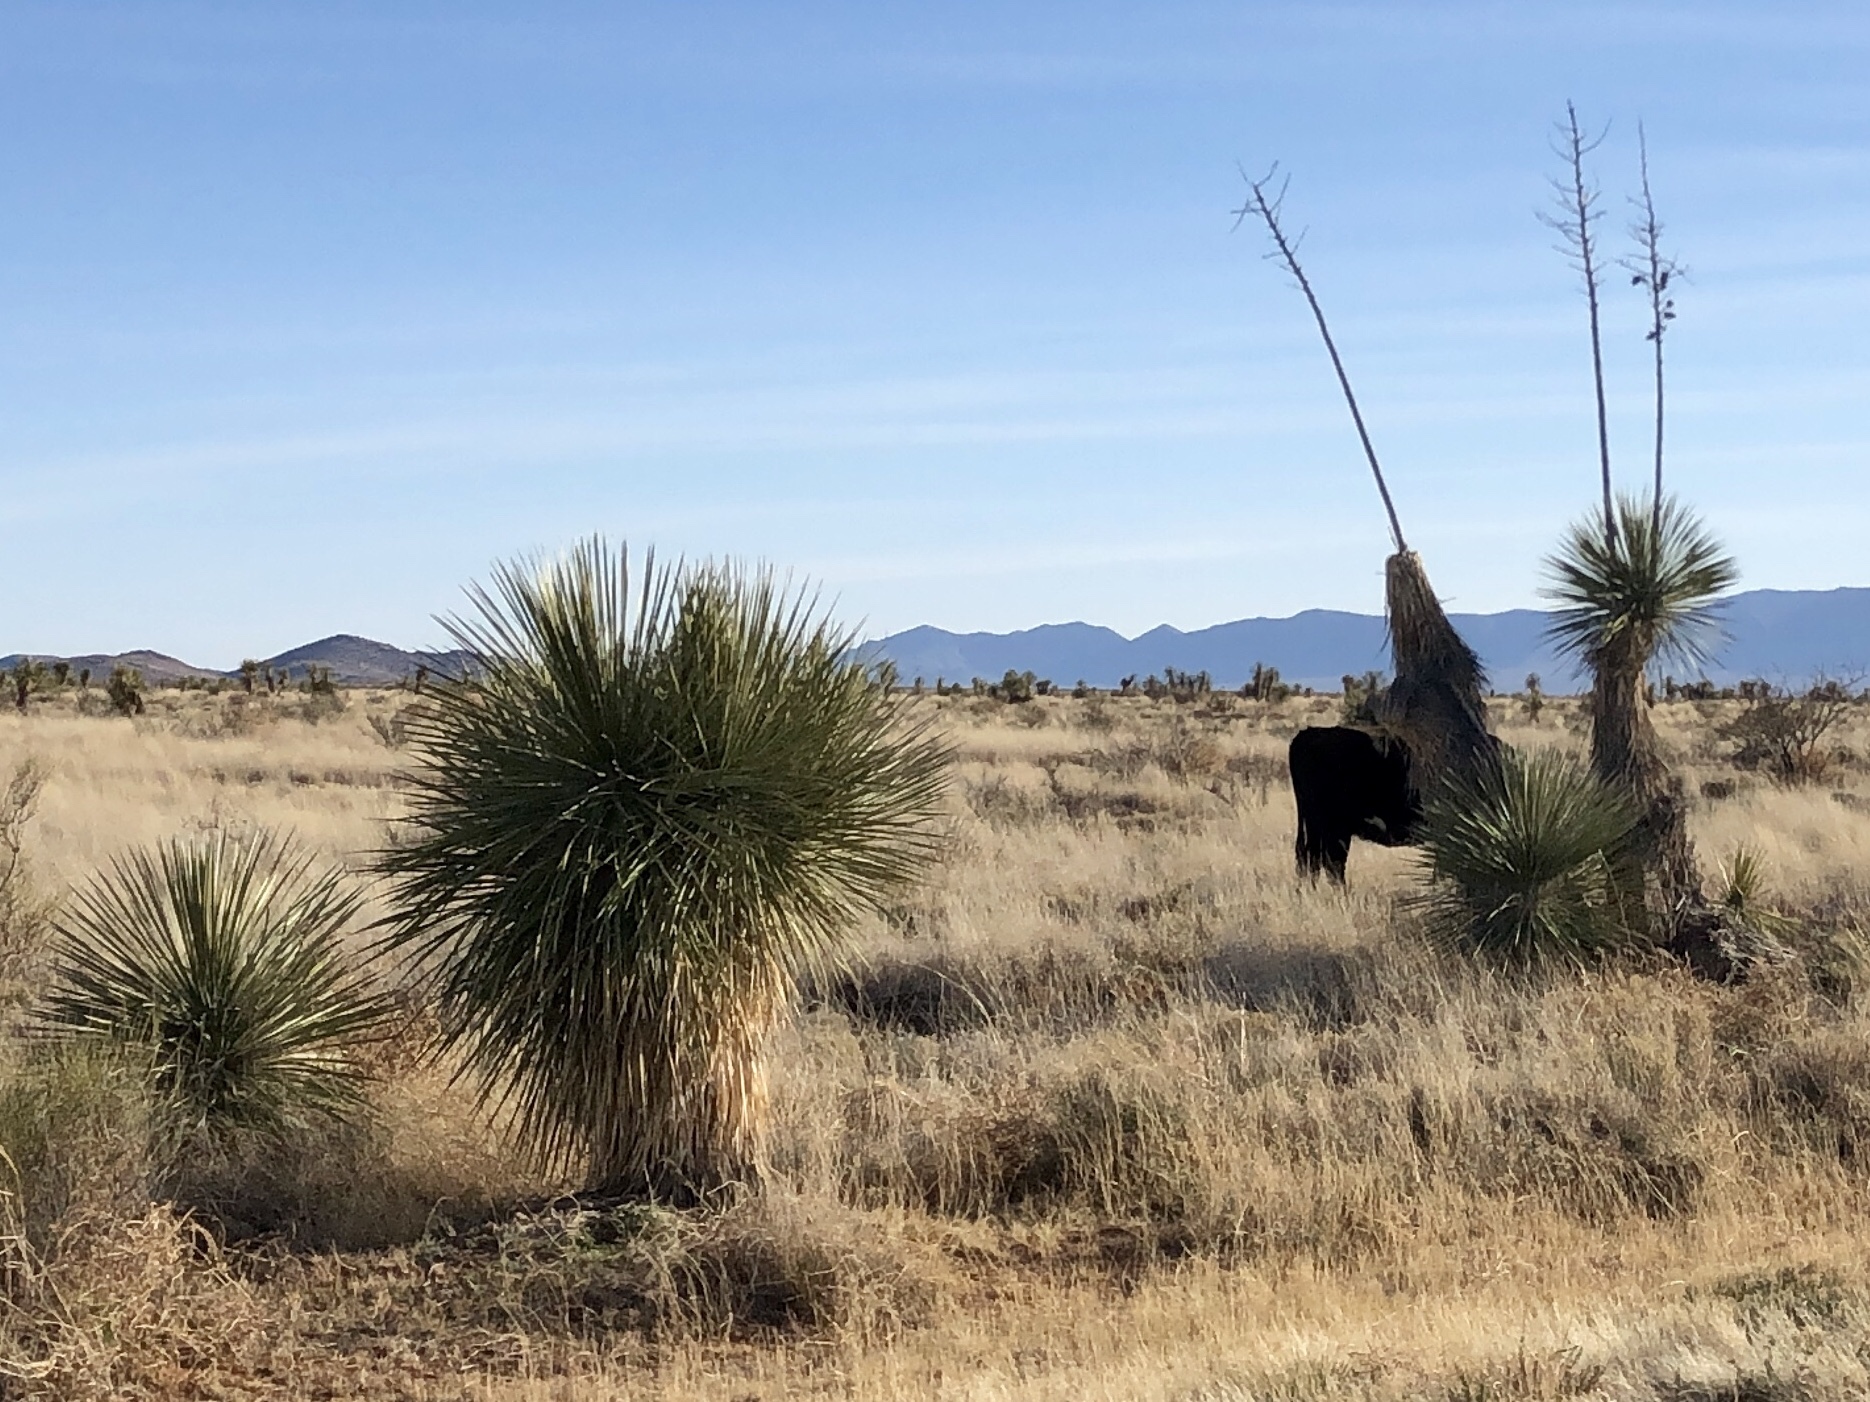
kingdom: Plantae
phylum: Tracheophyta
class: Liliopsida
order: Asparagales
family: Asparagaceae
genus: Yucca
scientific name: Yucca elata
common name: Palmella
